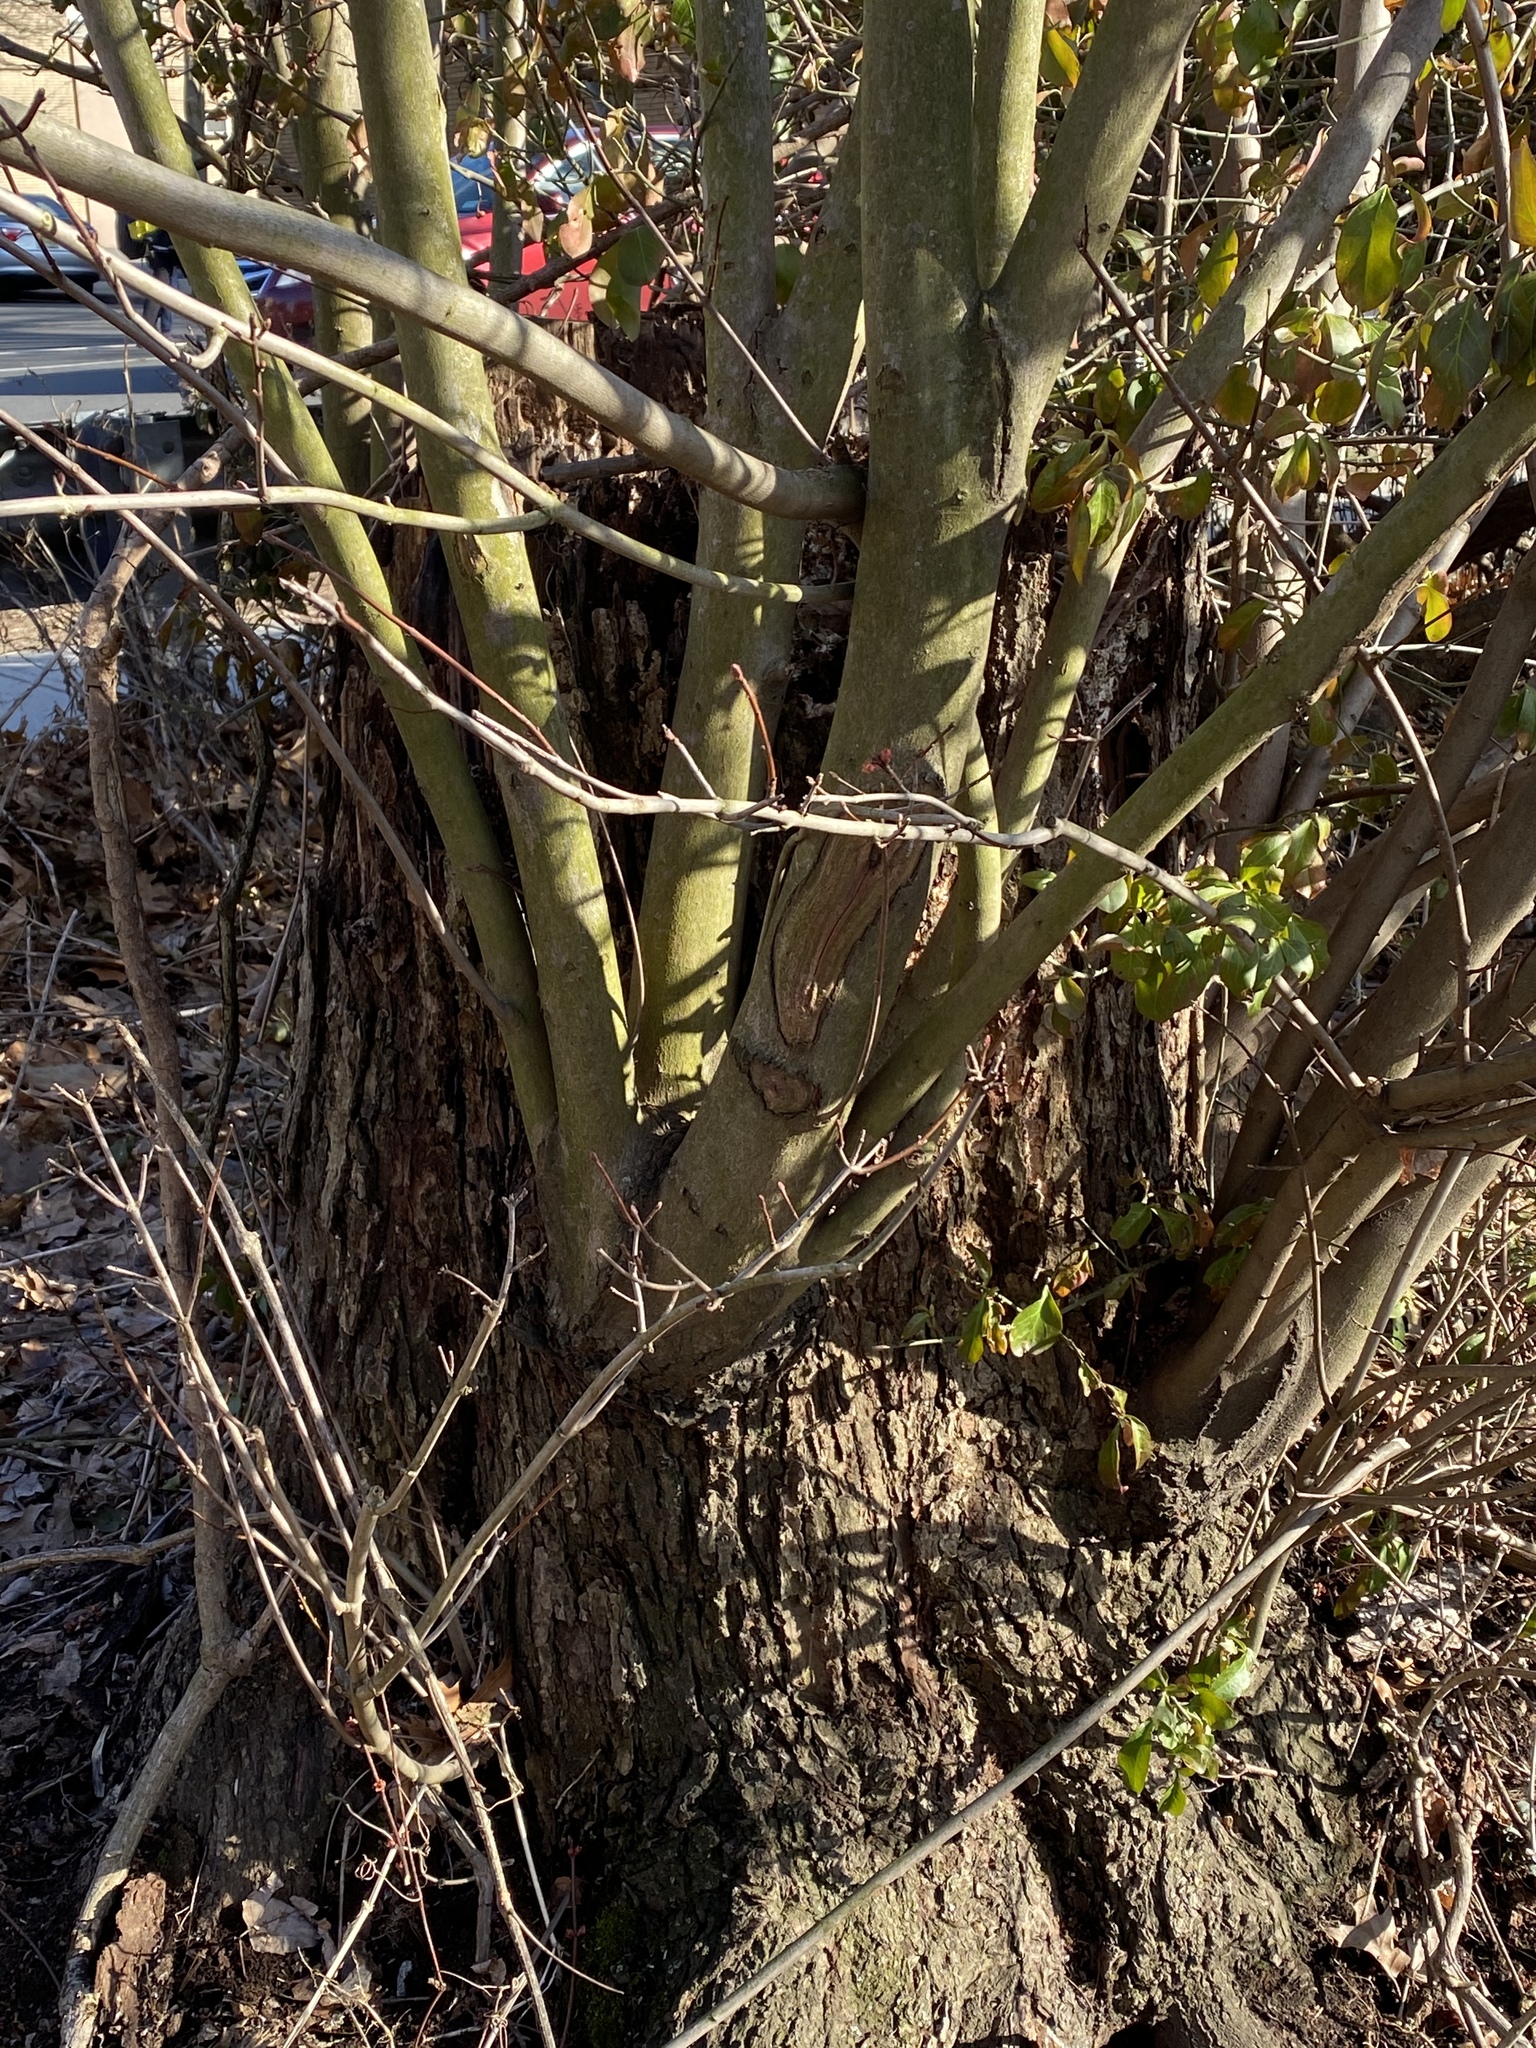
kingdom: Plantae
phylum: Tracheophyta
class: Magnoliopsida
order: Sapindales
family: Sapindaceae
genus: Acer
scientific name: Acer saccharinum
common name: Silver maple
